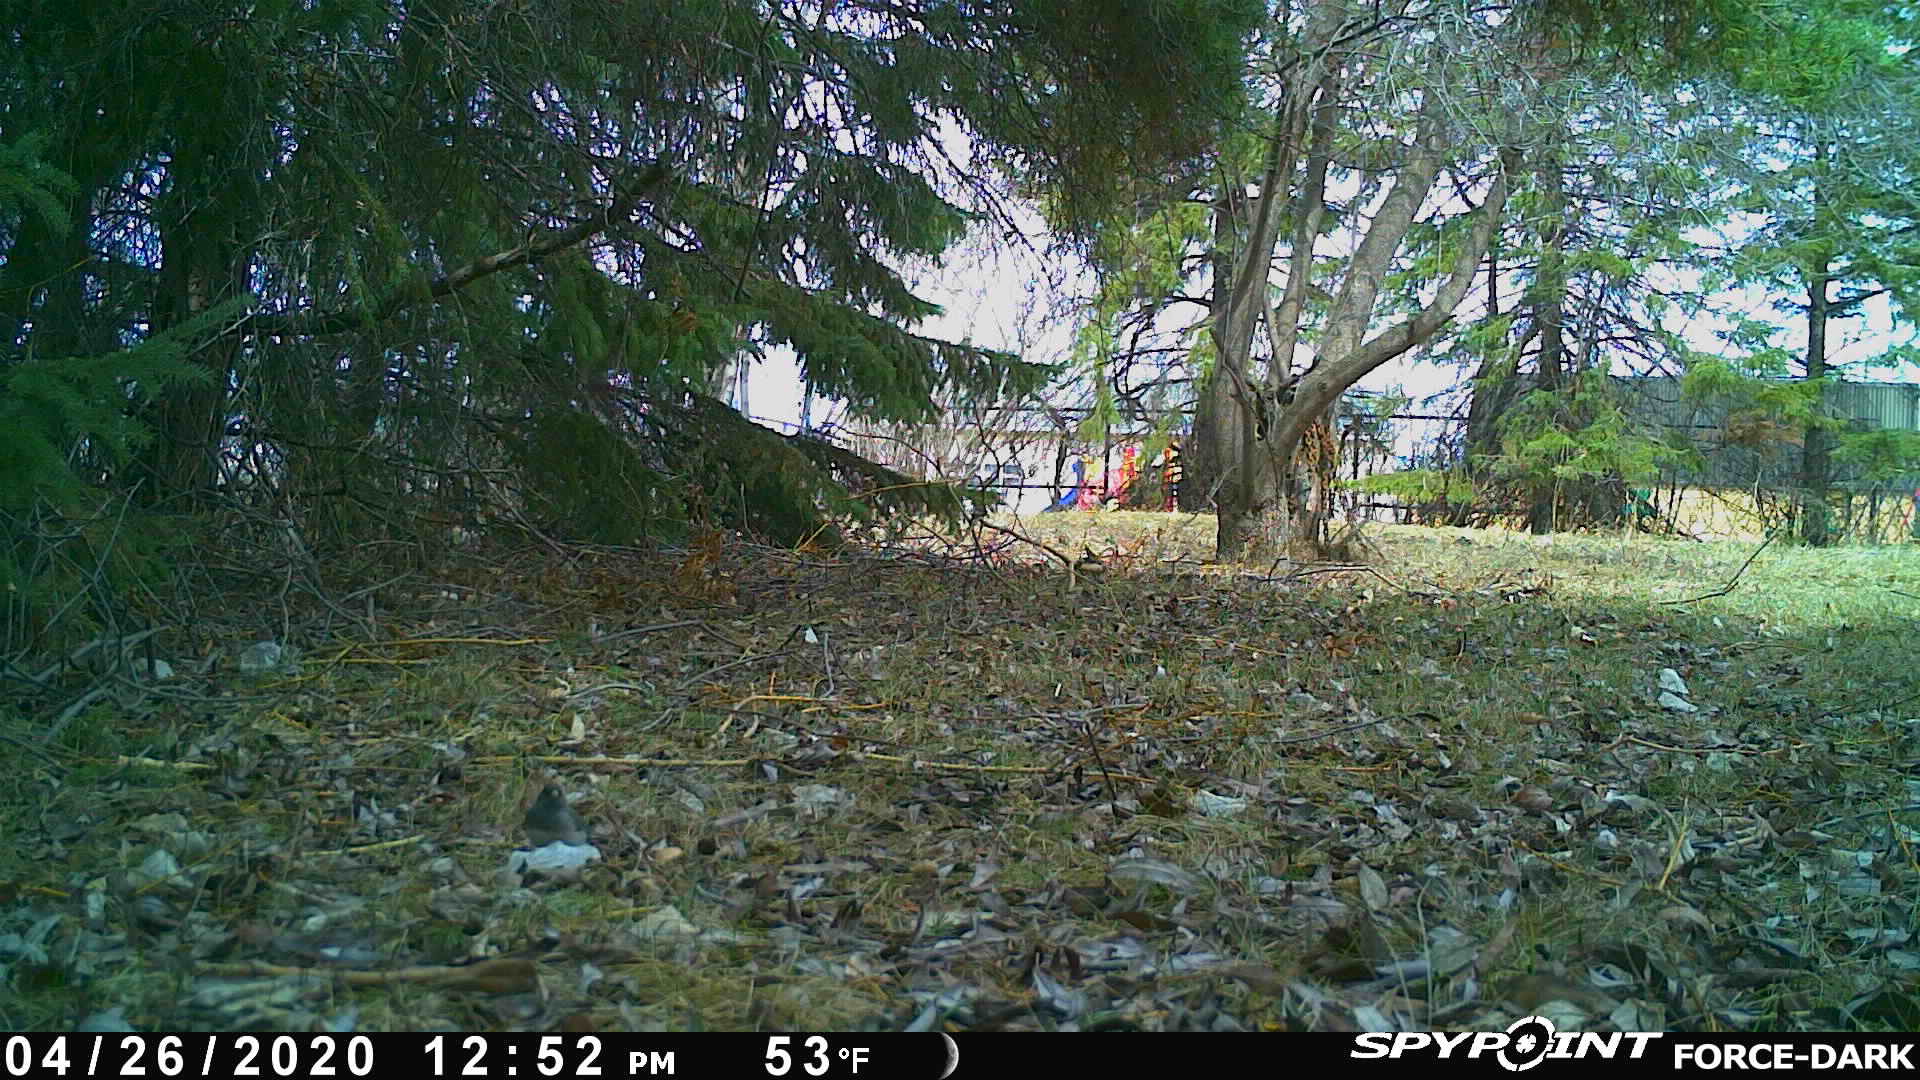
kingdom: Animalia
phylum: Chordata
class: Aves
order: Passeriformes
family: Passerellidae
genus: Junco
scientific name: Junco hyemalis
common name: Dark-eyed junco
